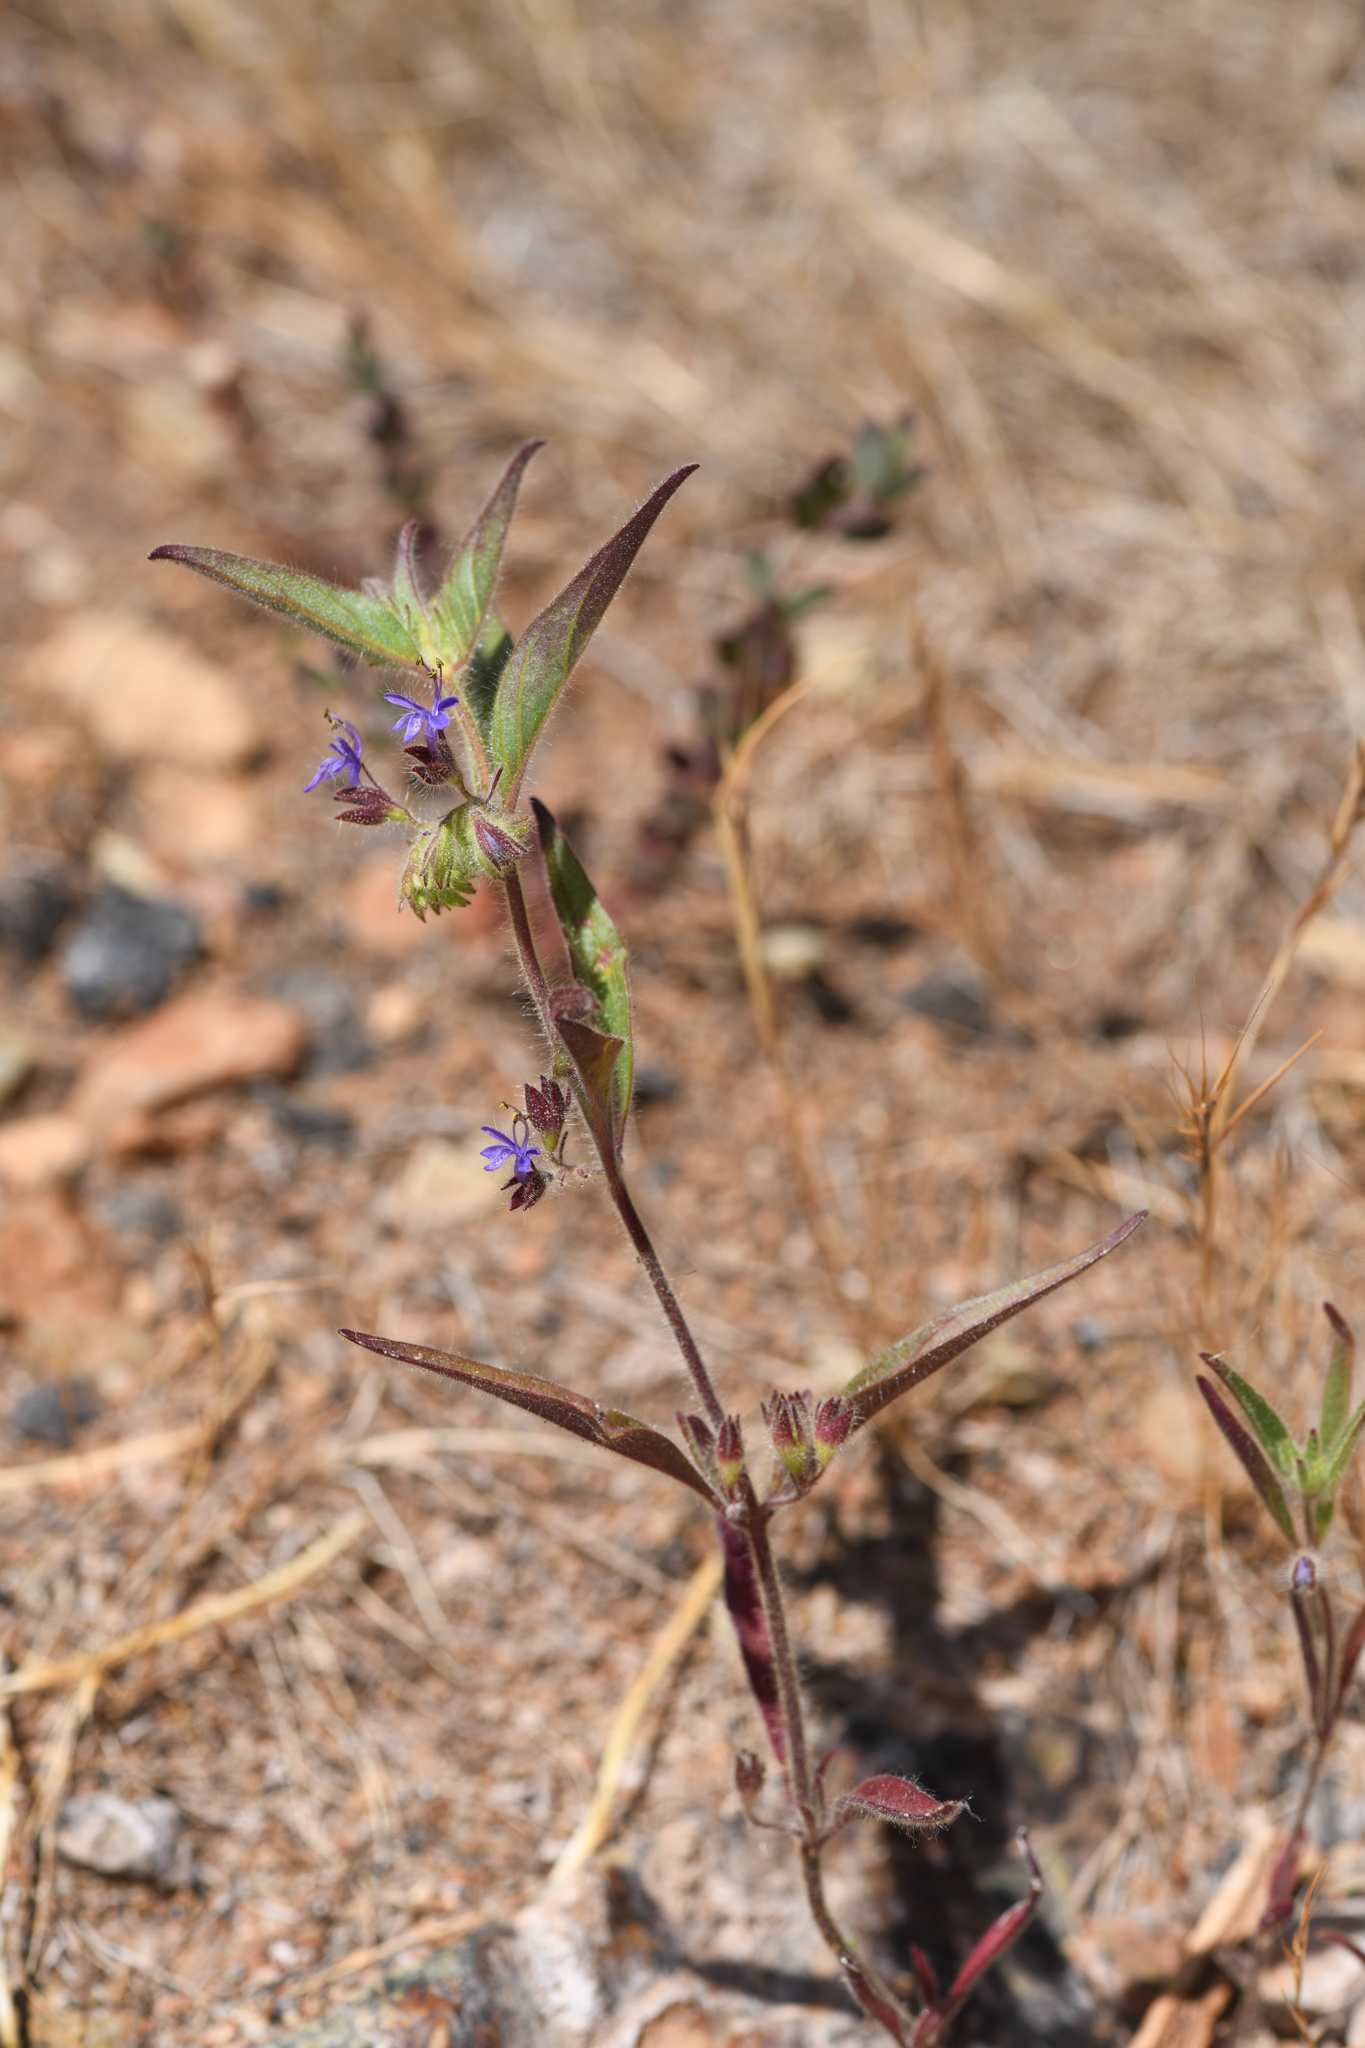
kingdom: Plantae
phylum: Tracheophyta
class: Magnoliopsida
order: Lamiales
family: Lamiaceae
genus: Trichostema
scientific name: Trichostema rubisepalum
